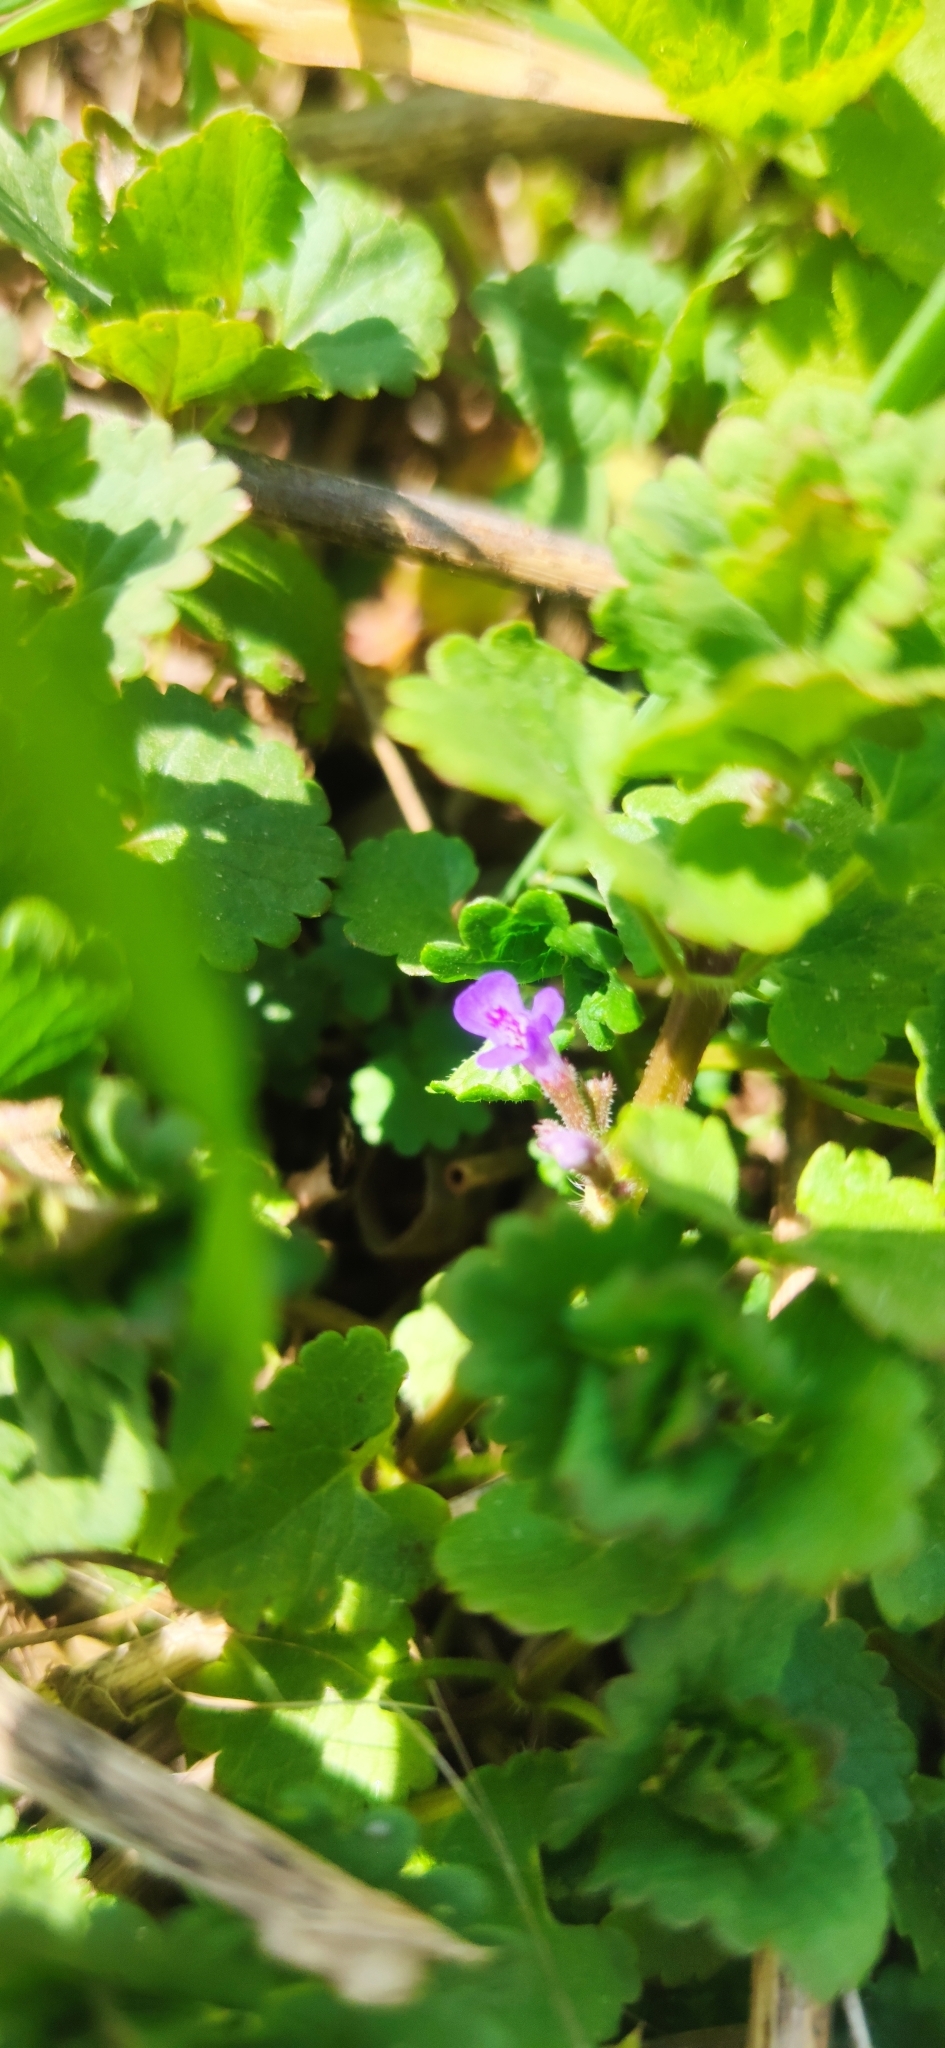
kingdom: Plantae
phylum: Tracheophyta
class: Magnoliopsida
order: Lamiales
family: Lamiaceae
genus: Glechoma
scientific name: Glechoma hederacea
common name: Ground ivy
